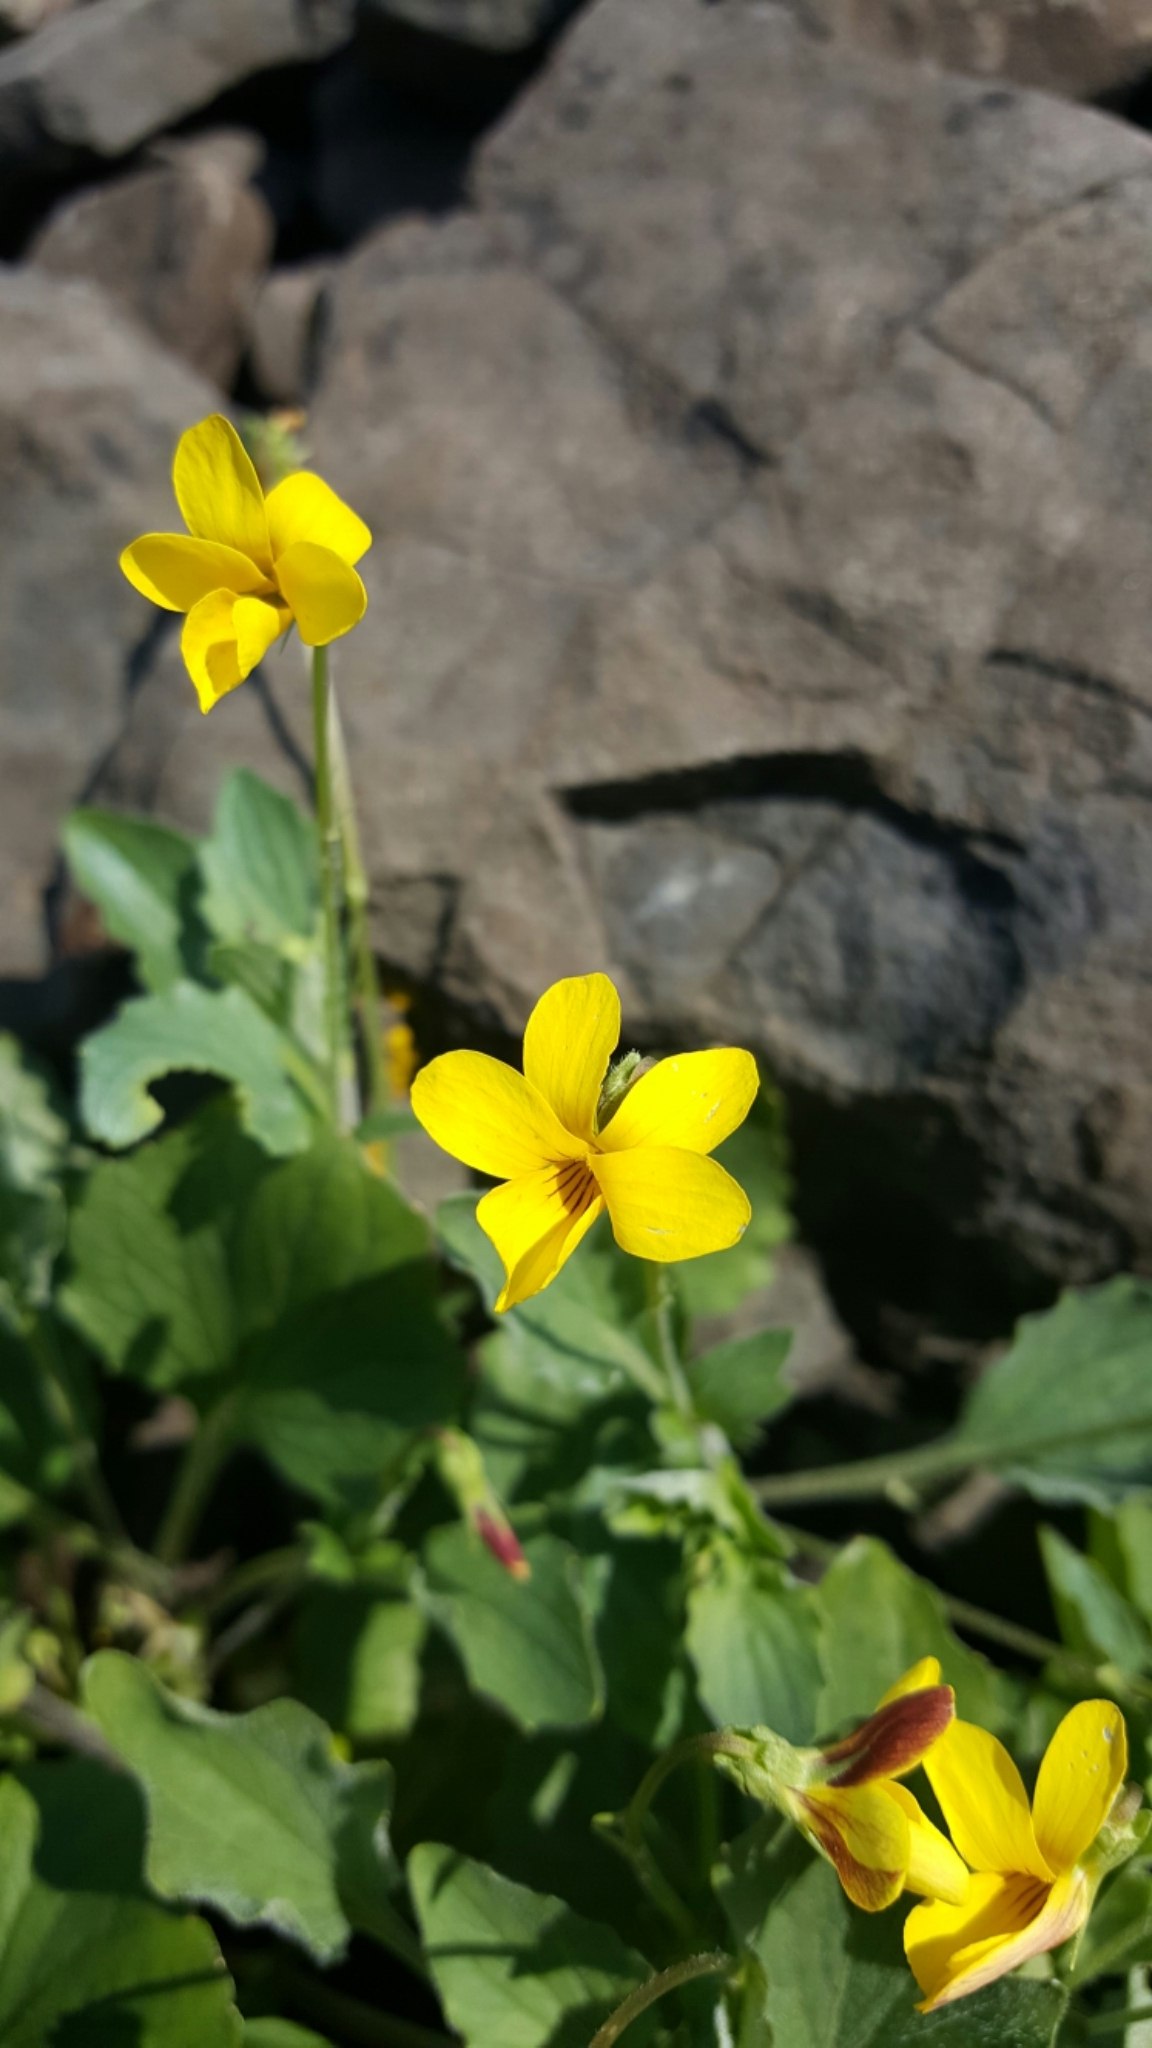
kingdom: Plantae
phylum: Tracheophyta
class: Magnoliopsida
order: Malpighiales
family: Violaceae
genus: Viola
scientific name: Viola purpurea
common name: Pine violet
